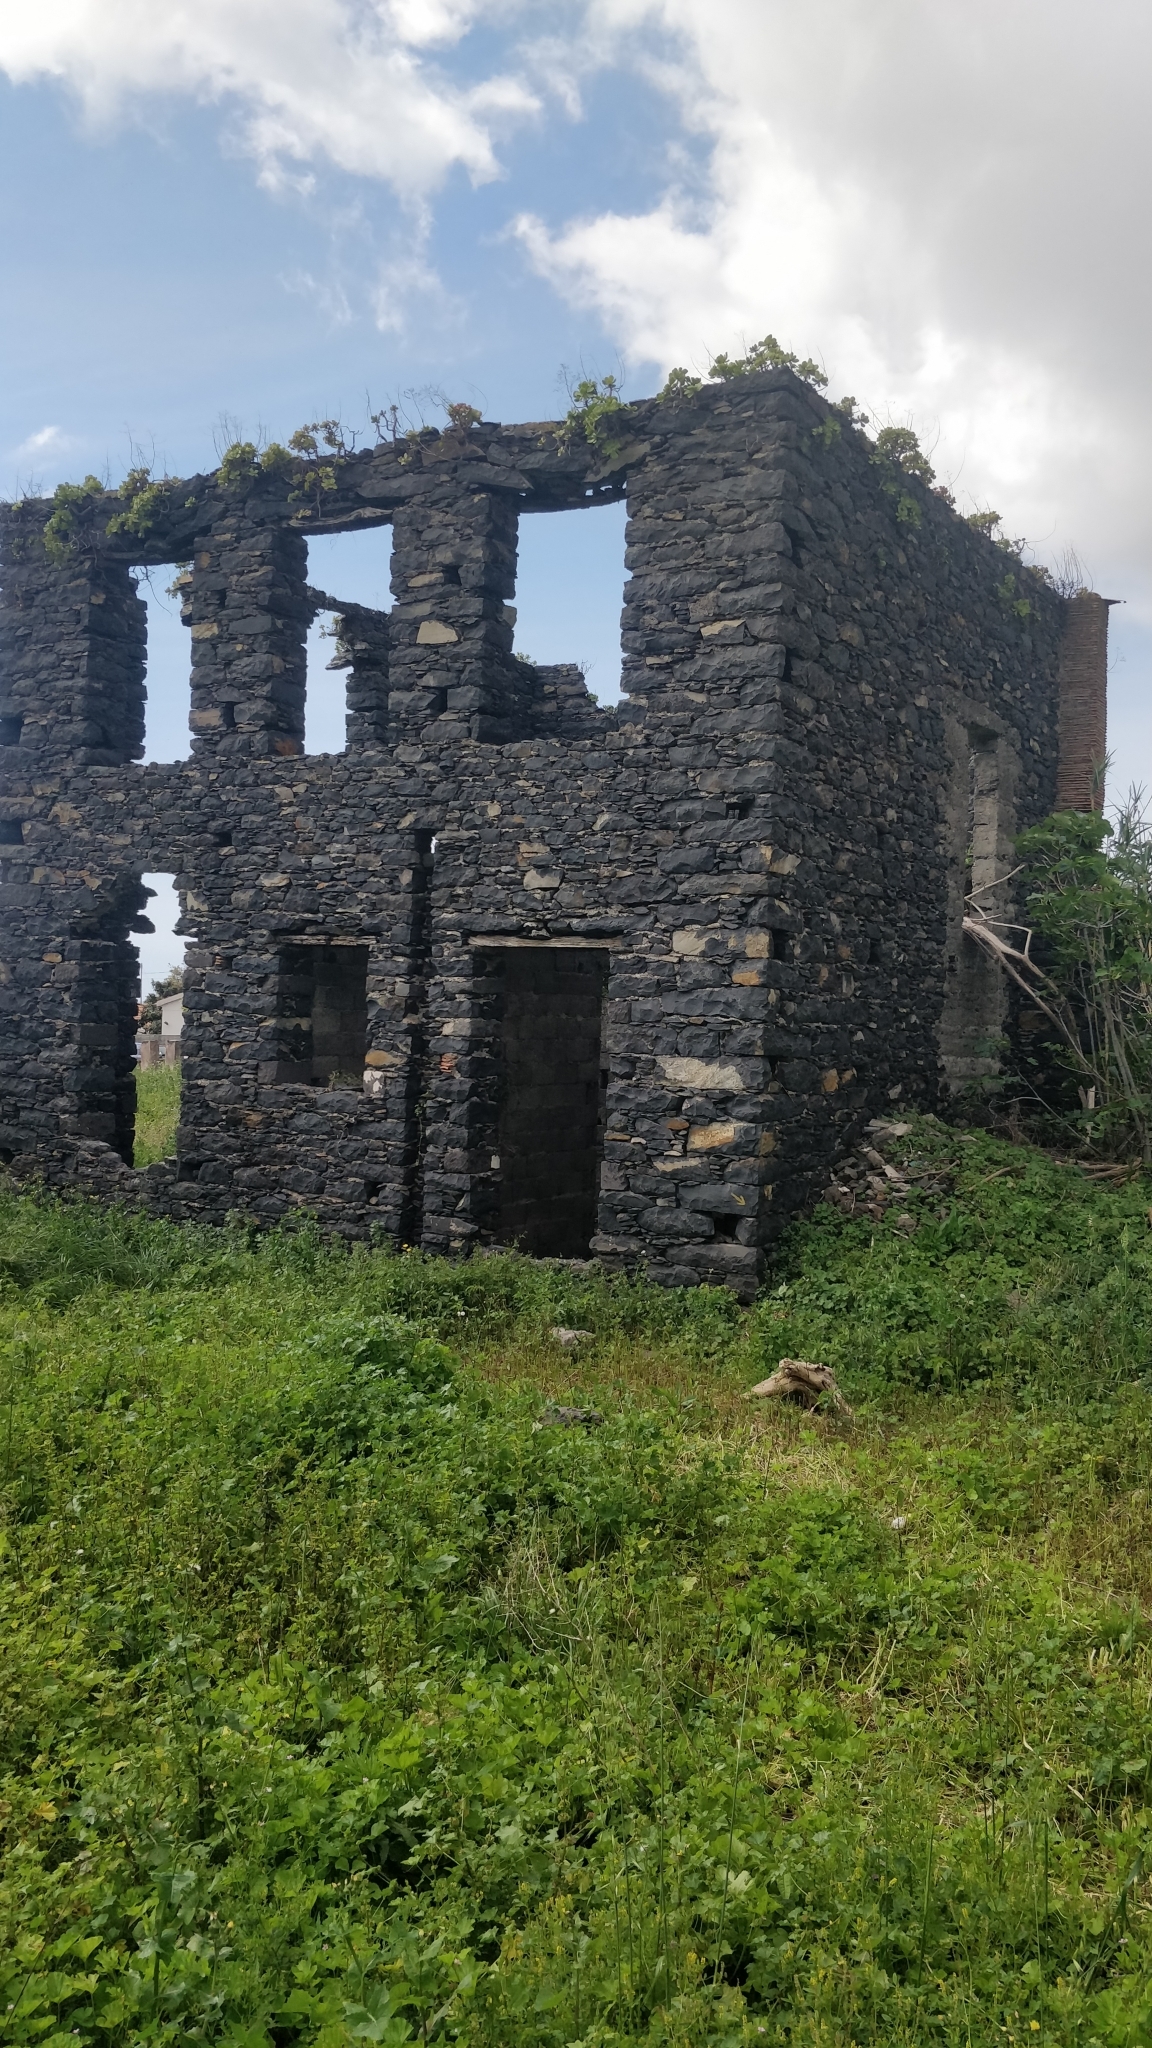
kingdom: Plantae
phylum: Tracheophyta
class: Magnoliopsida
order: Saxifragales
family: Crassulaceae
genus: Aeonium
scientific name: Aeonium glutinosum
